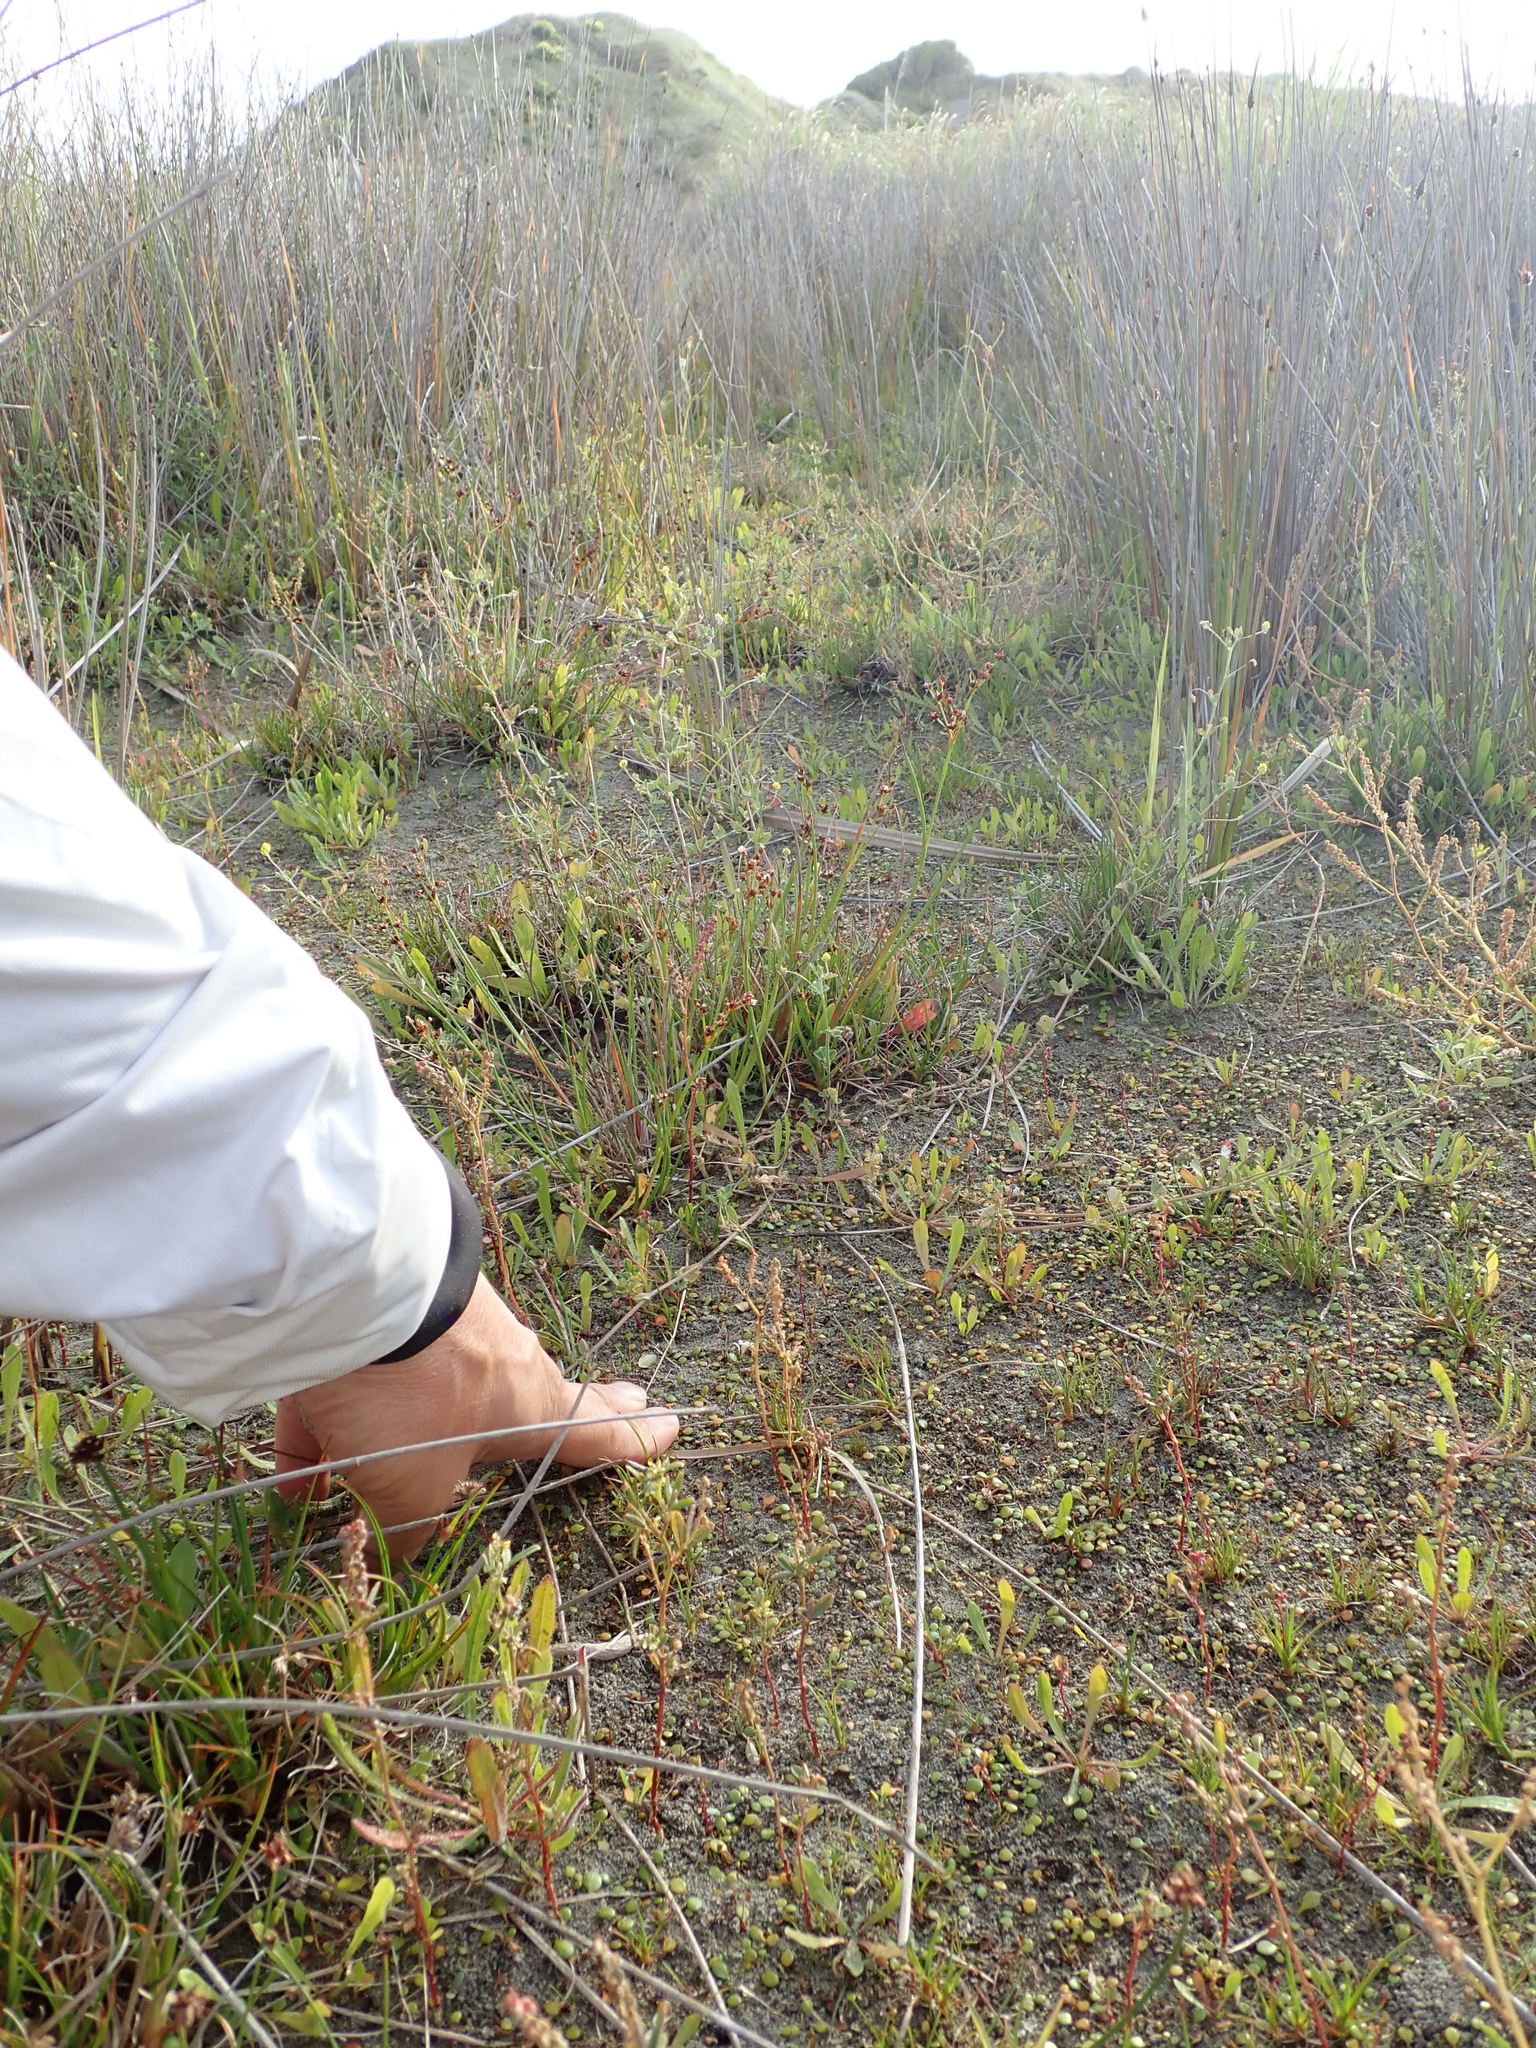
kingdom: Plantae
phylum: Tracheophyta
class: Magnoliopsida
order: Asterales
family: Goodeniaceae
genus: Goodenia
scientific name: Goodenia heenanii
